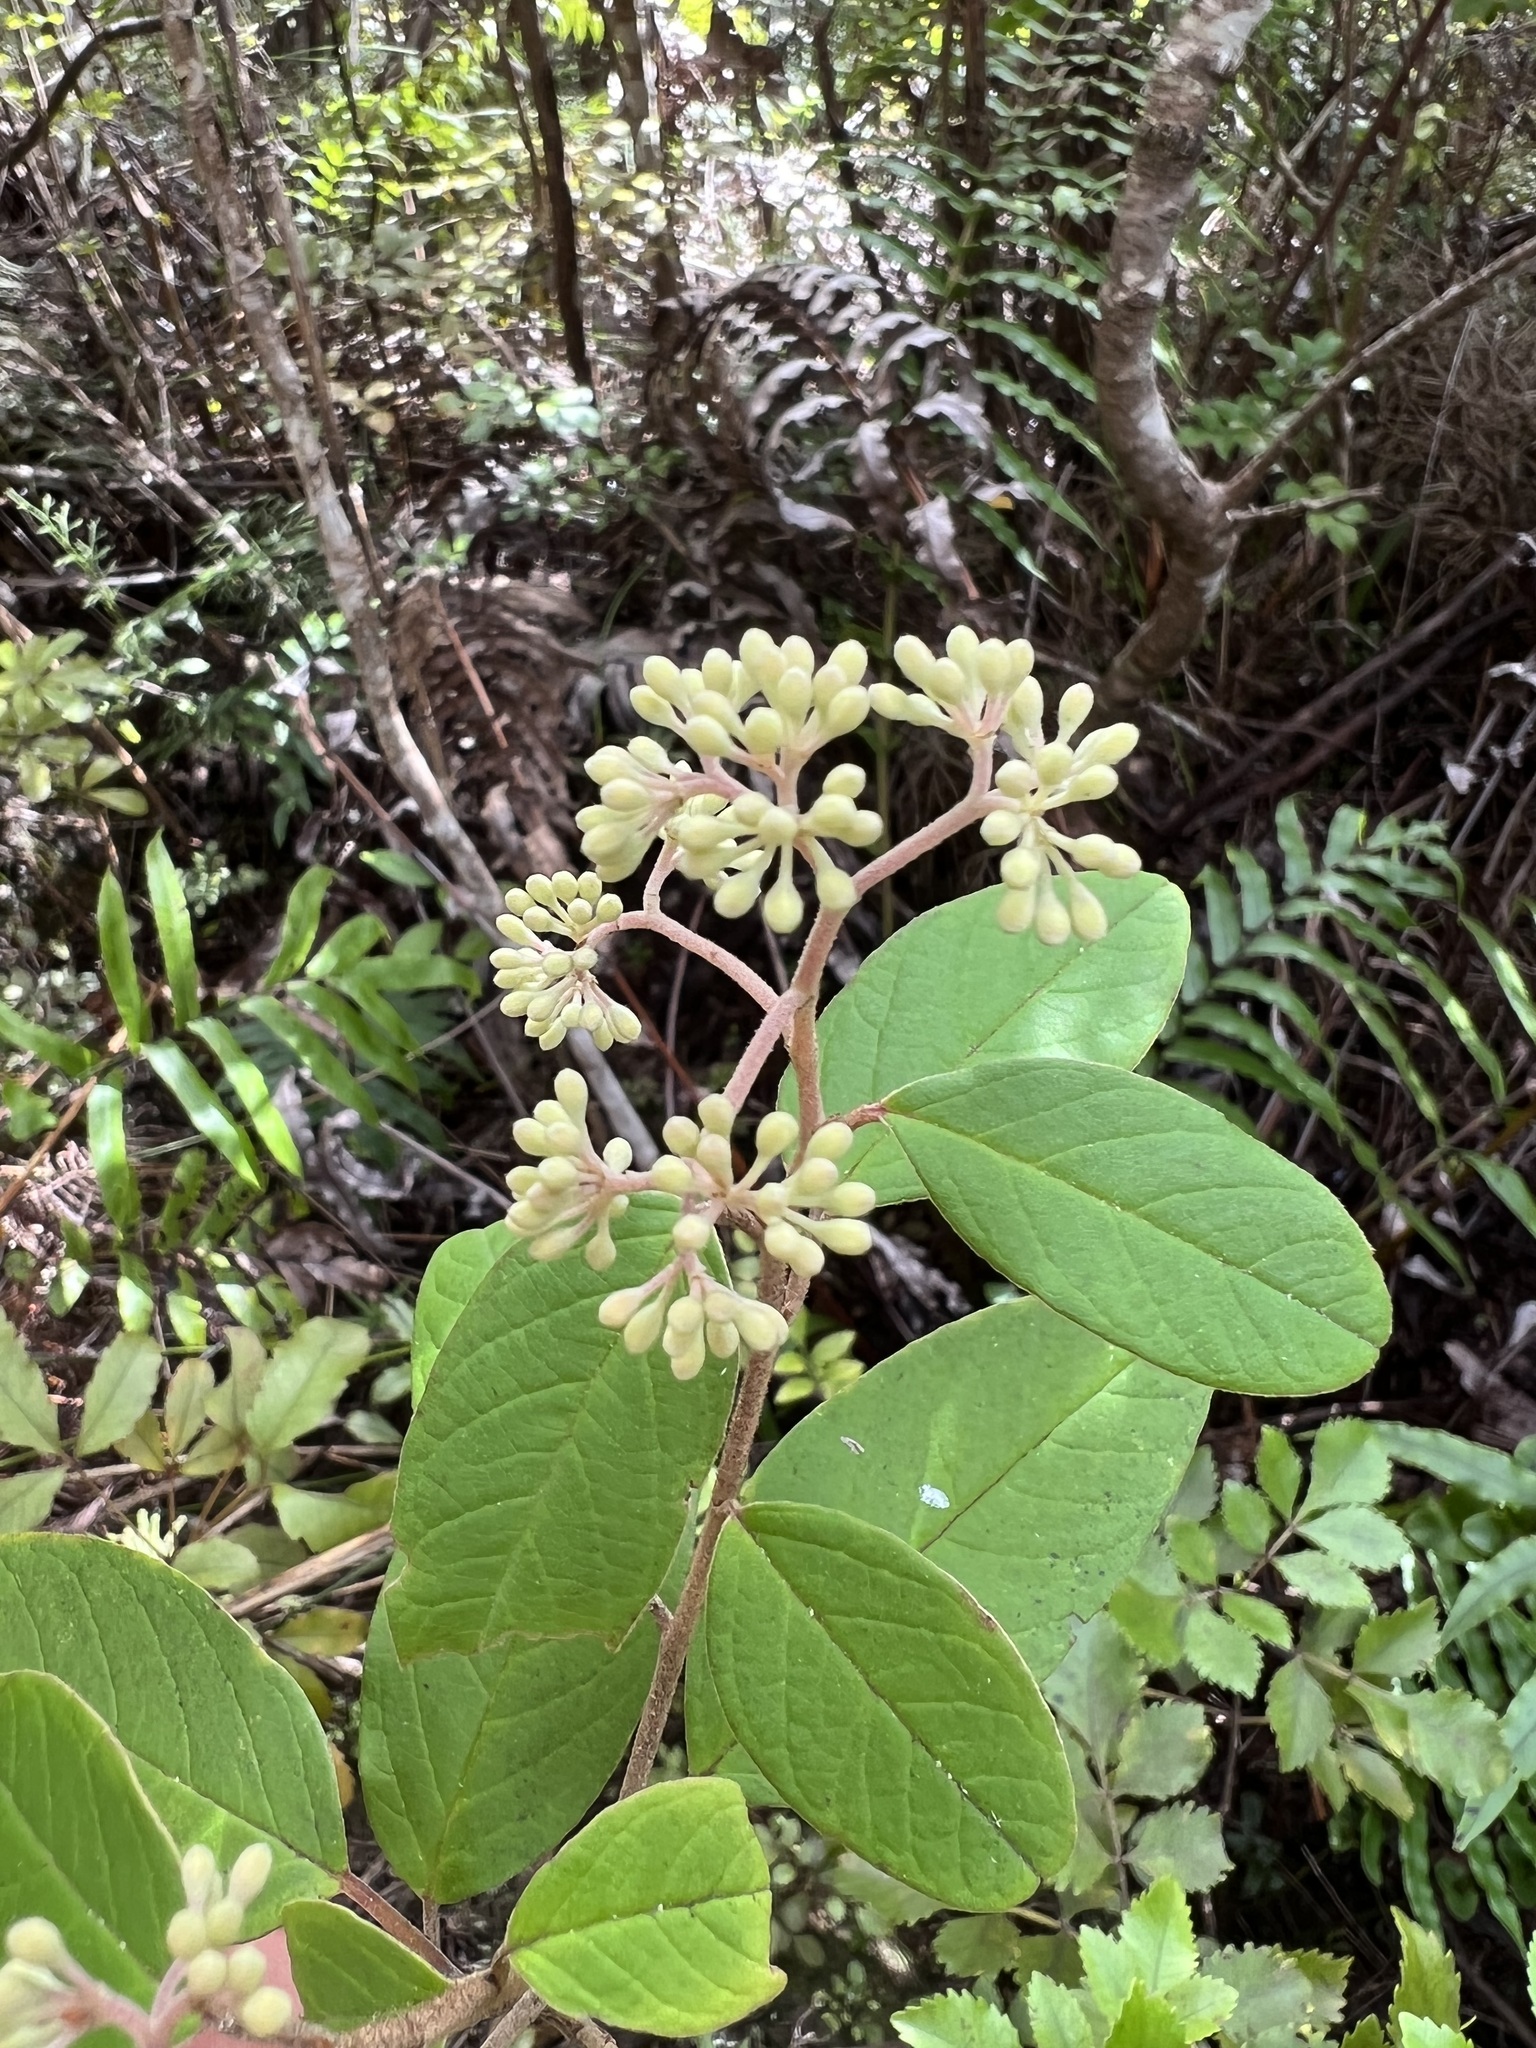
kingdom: Plantae
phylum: Tracheophyta
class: Magnoliopsida
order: Rosales
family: Rhamnaceae
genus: Pomaderris
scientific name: Pomaderris kumeraho
